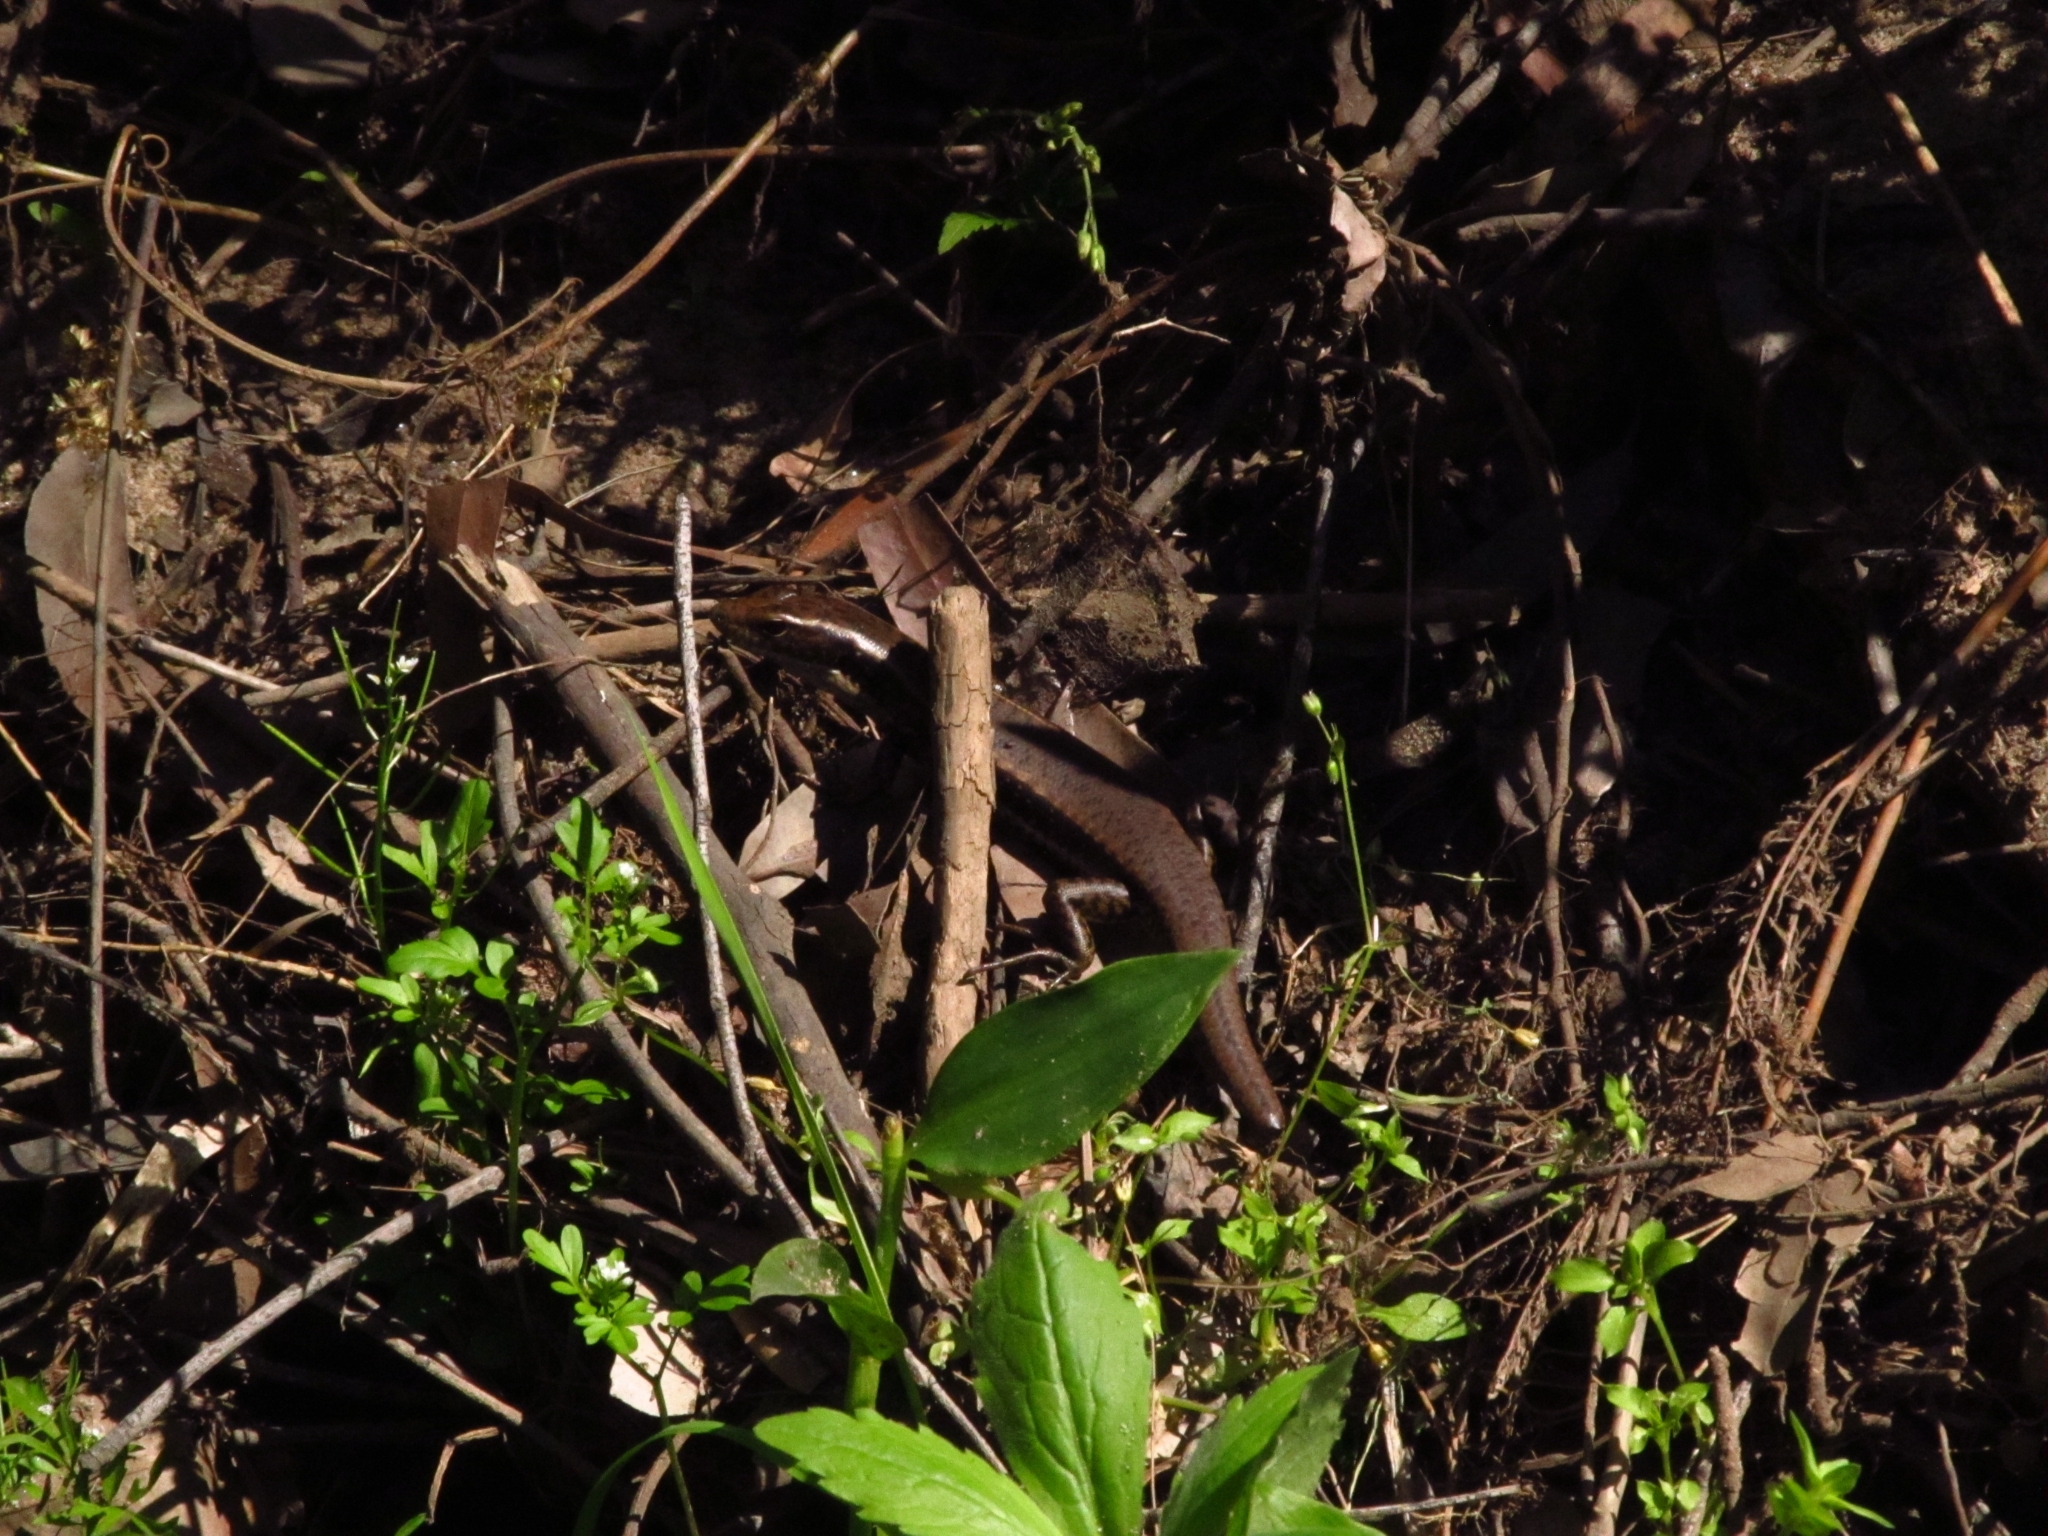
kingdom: Animalia
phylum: Chordata
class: Squamata
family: Scincidae
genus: Eulamprus
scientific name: Eulamprus quoyii
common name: Eastern water skink
